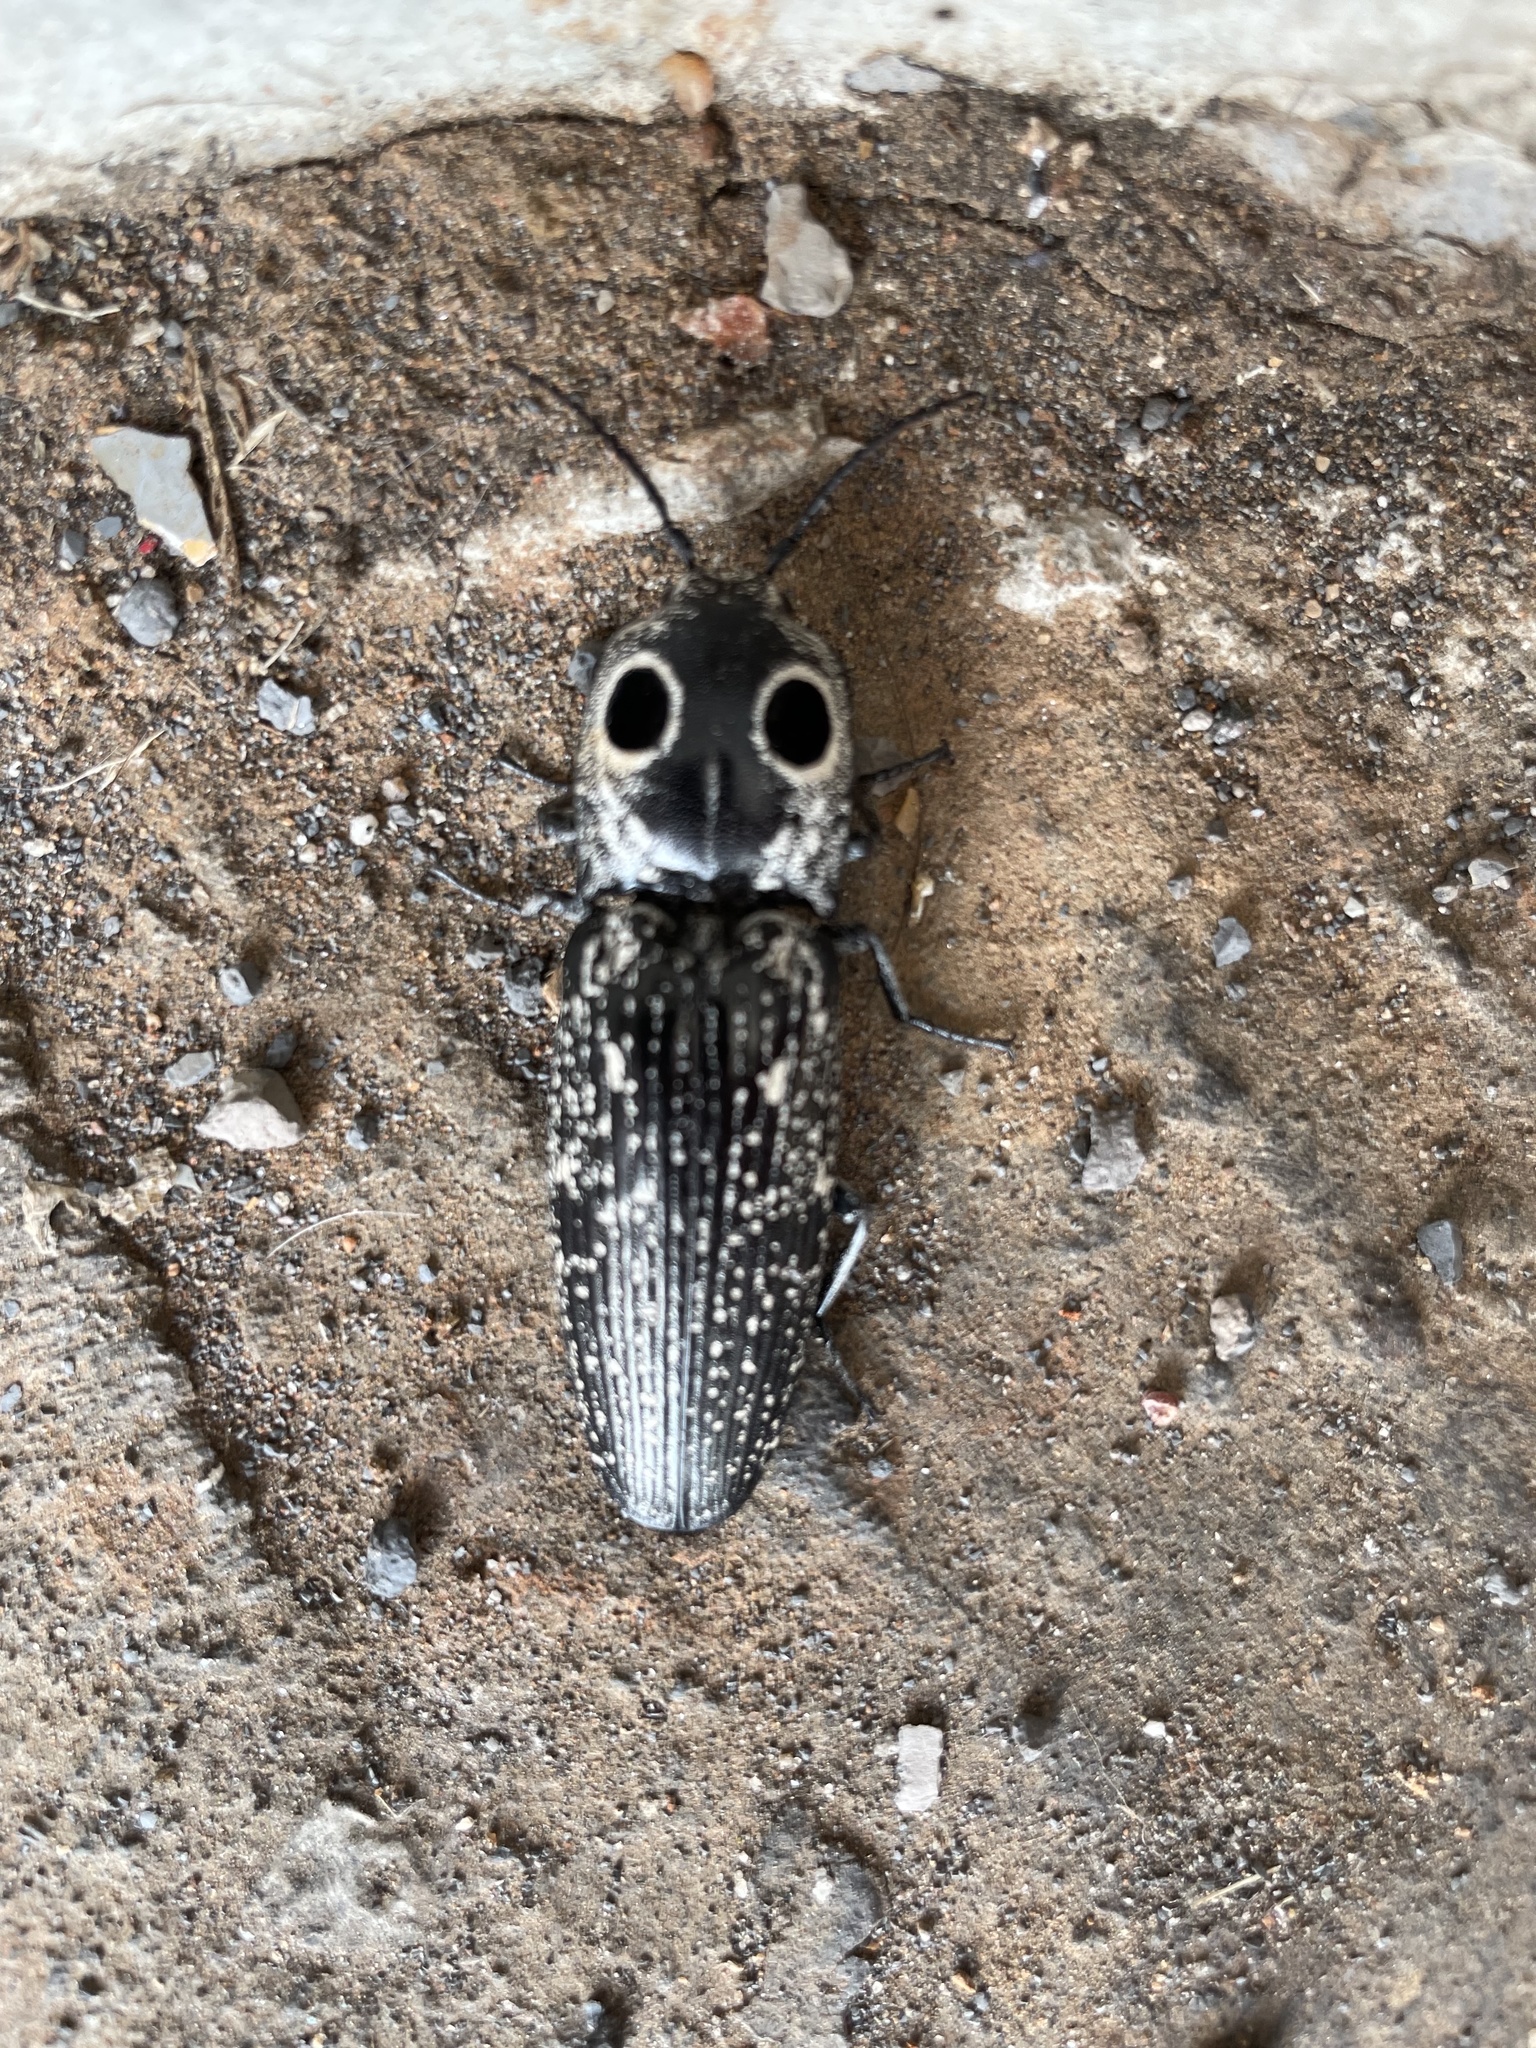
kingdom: Animalia
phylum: Arthropoda
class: Insecta
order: Coleoptera
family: Elateridae
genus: Alaus
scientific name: Alaus oculatus
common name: Eastern eyed click beetle
